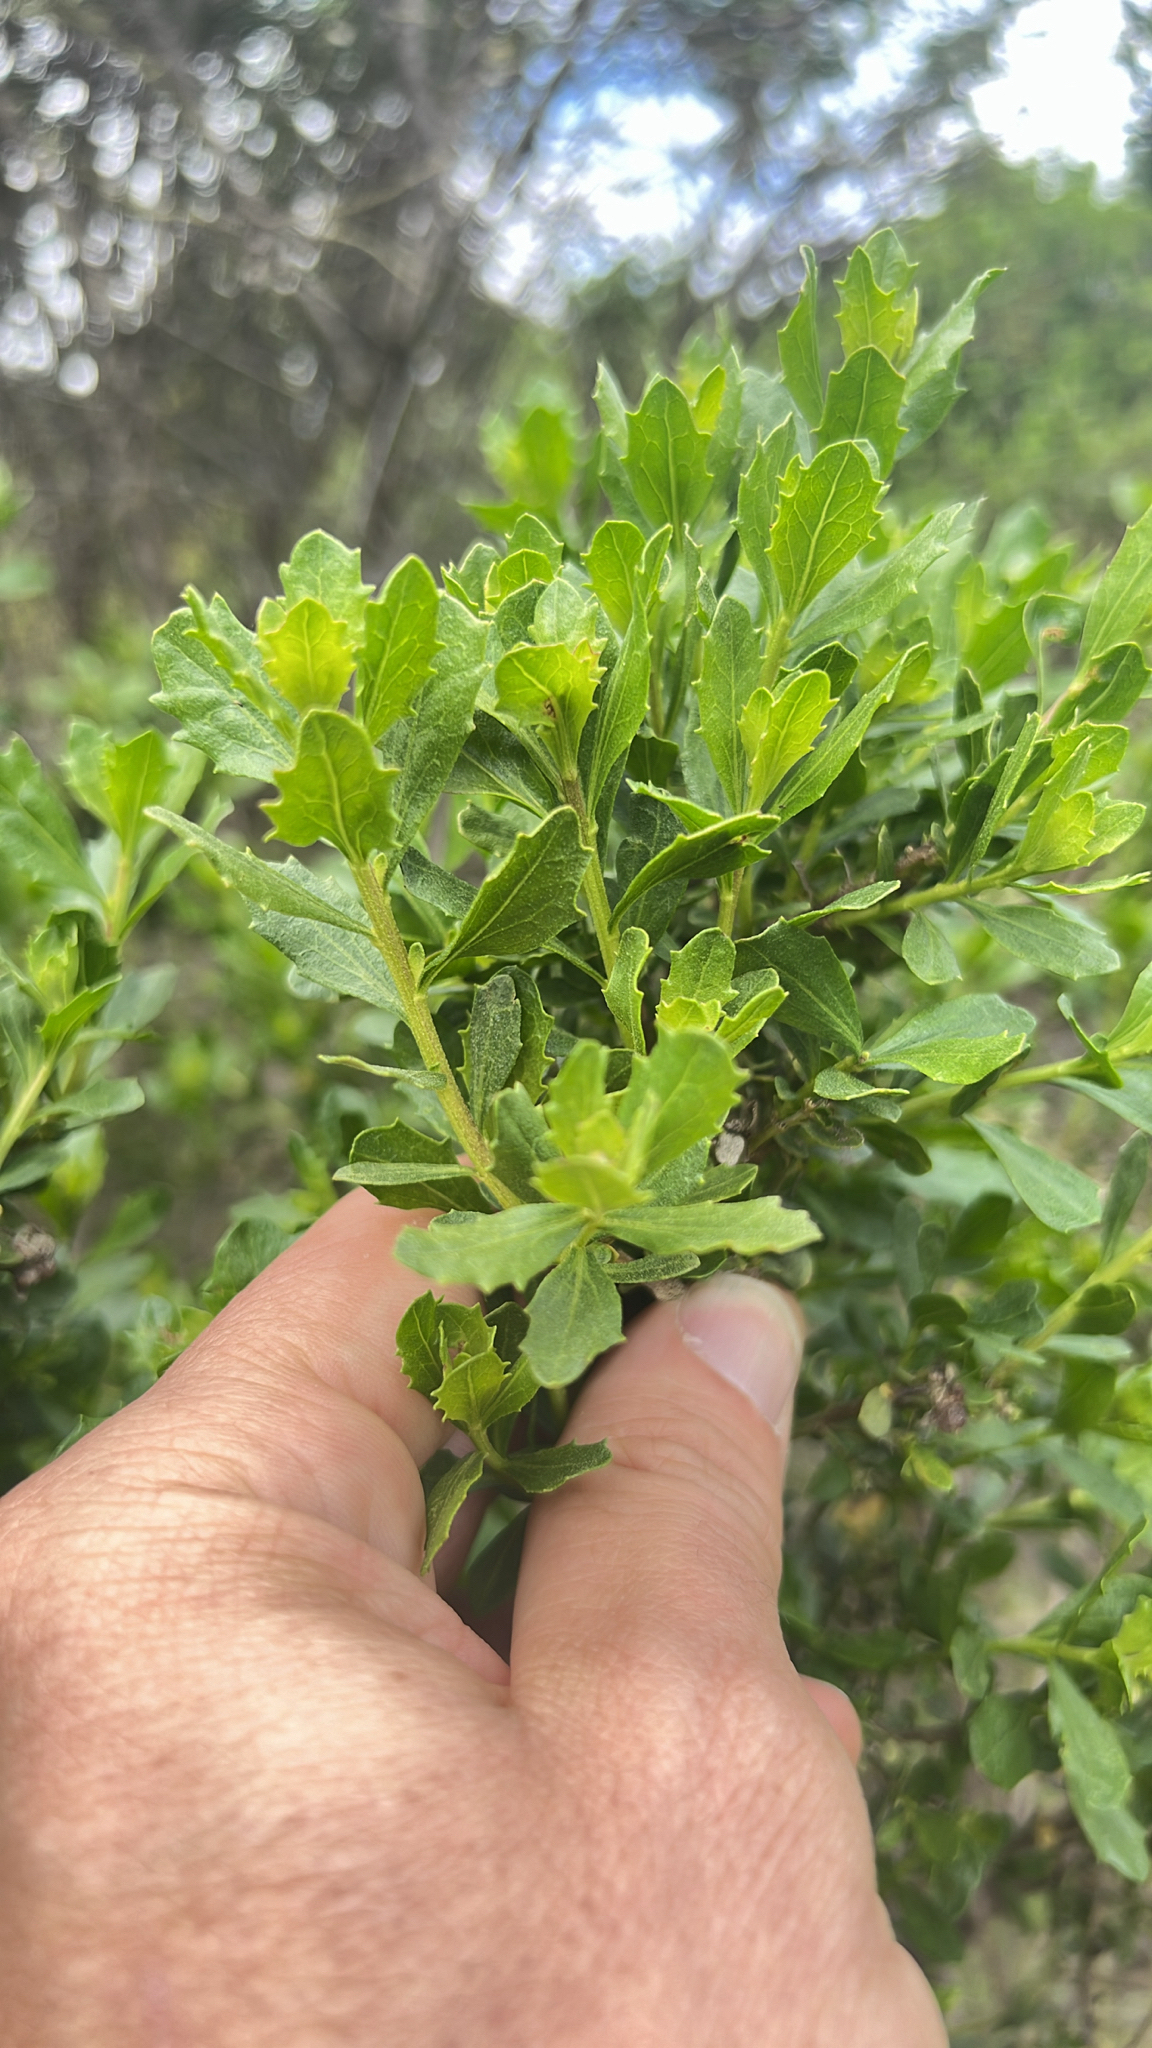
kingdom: Plantae
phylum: Tracheophyta
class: Magnoliopsida
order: Asterales
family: Asteraceae
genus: Baccharis
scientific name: Baccharis pilularis
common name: Coyotebrush
